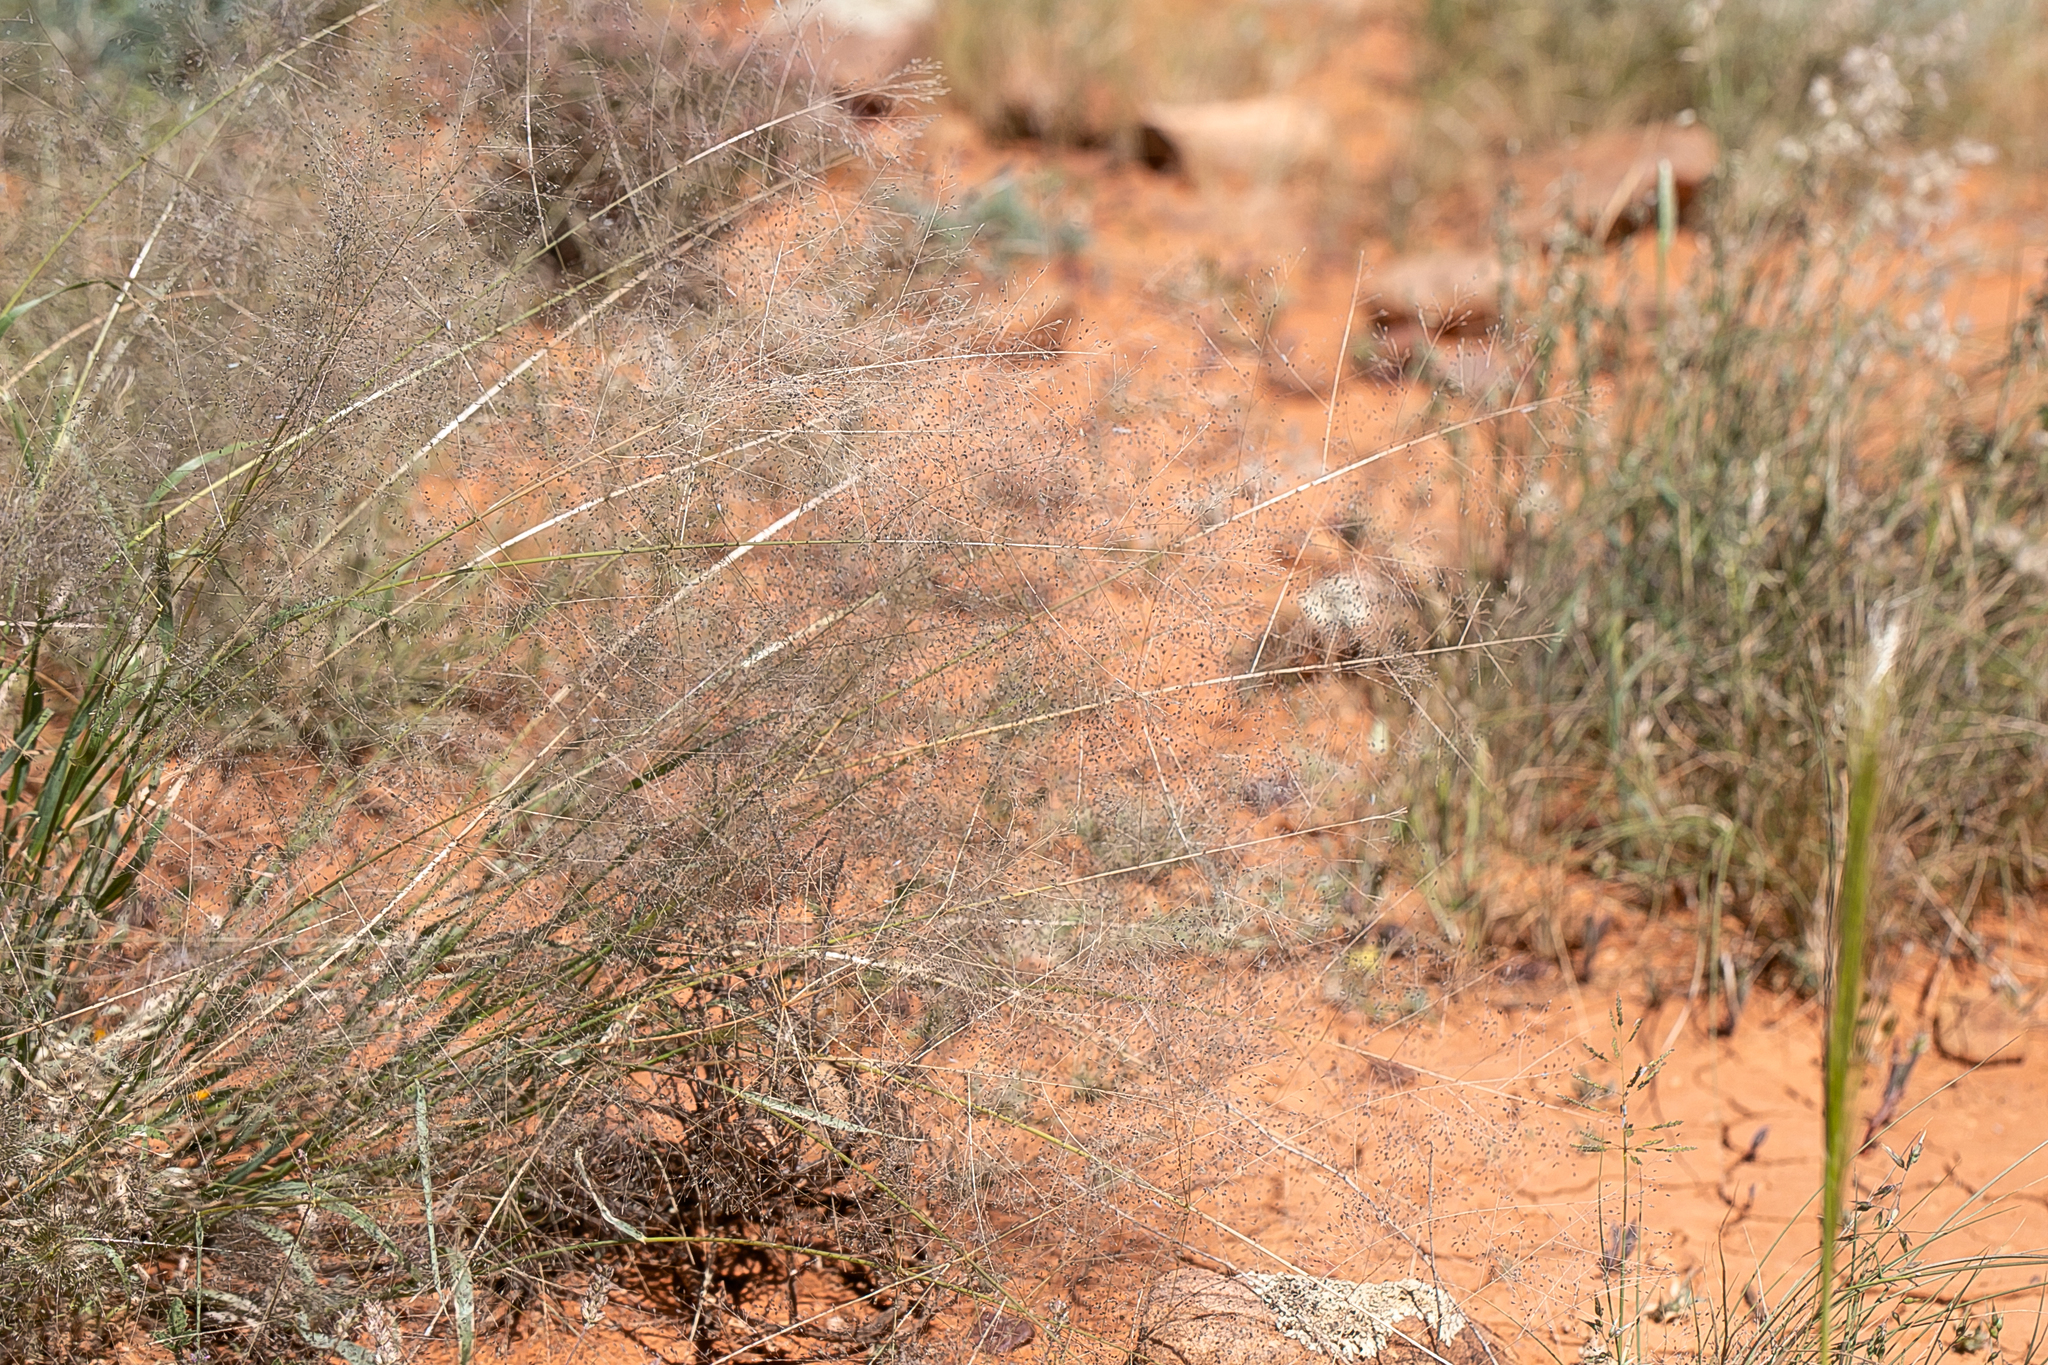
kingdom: Plantae
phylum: Tracheophyta
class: Liliopsida
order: Poales
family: Poaceae
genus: Sporobolus
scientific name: Sporobolus caroli
